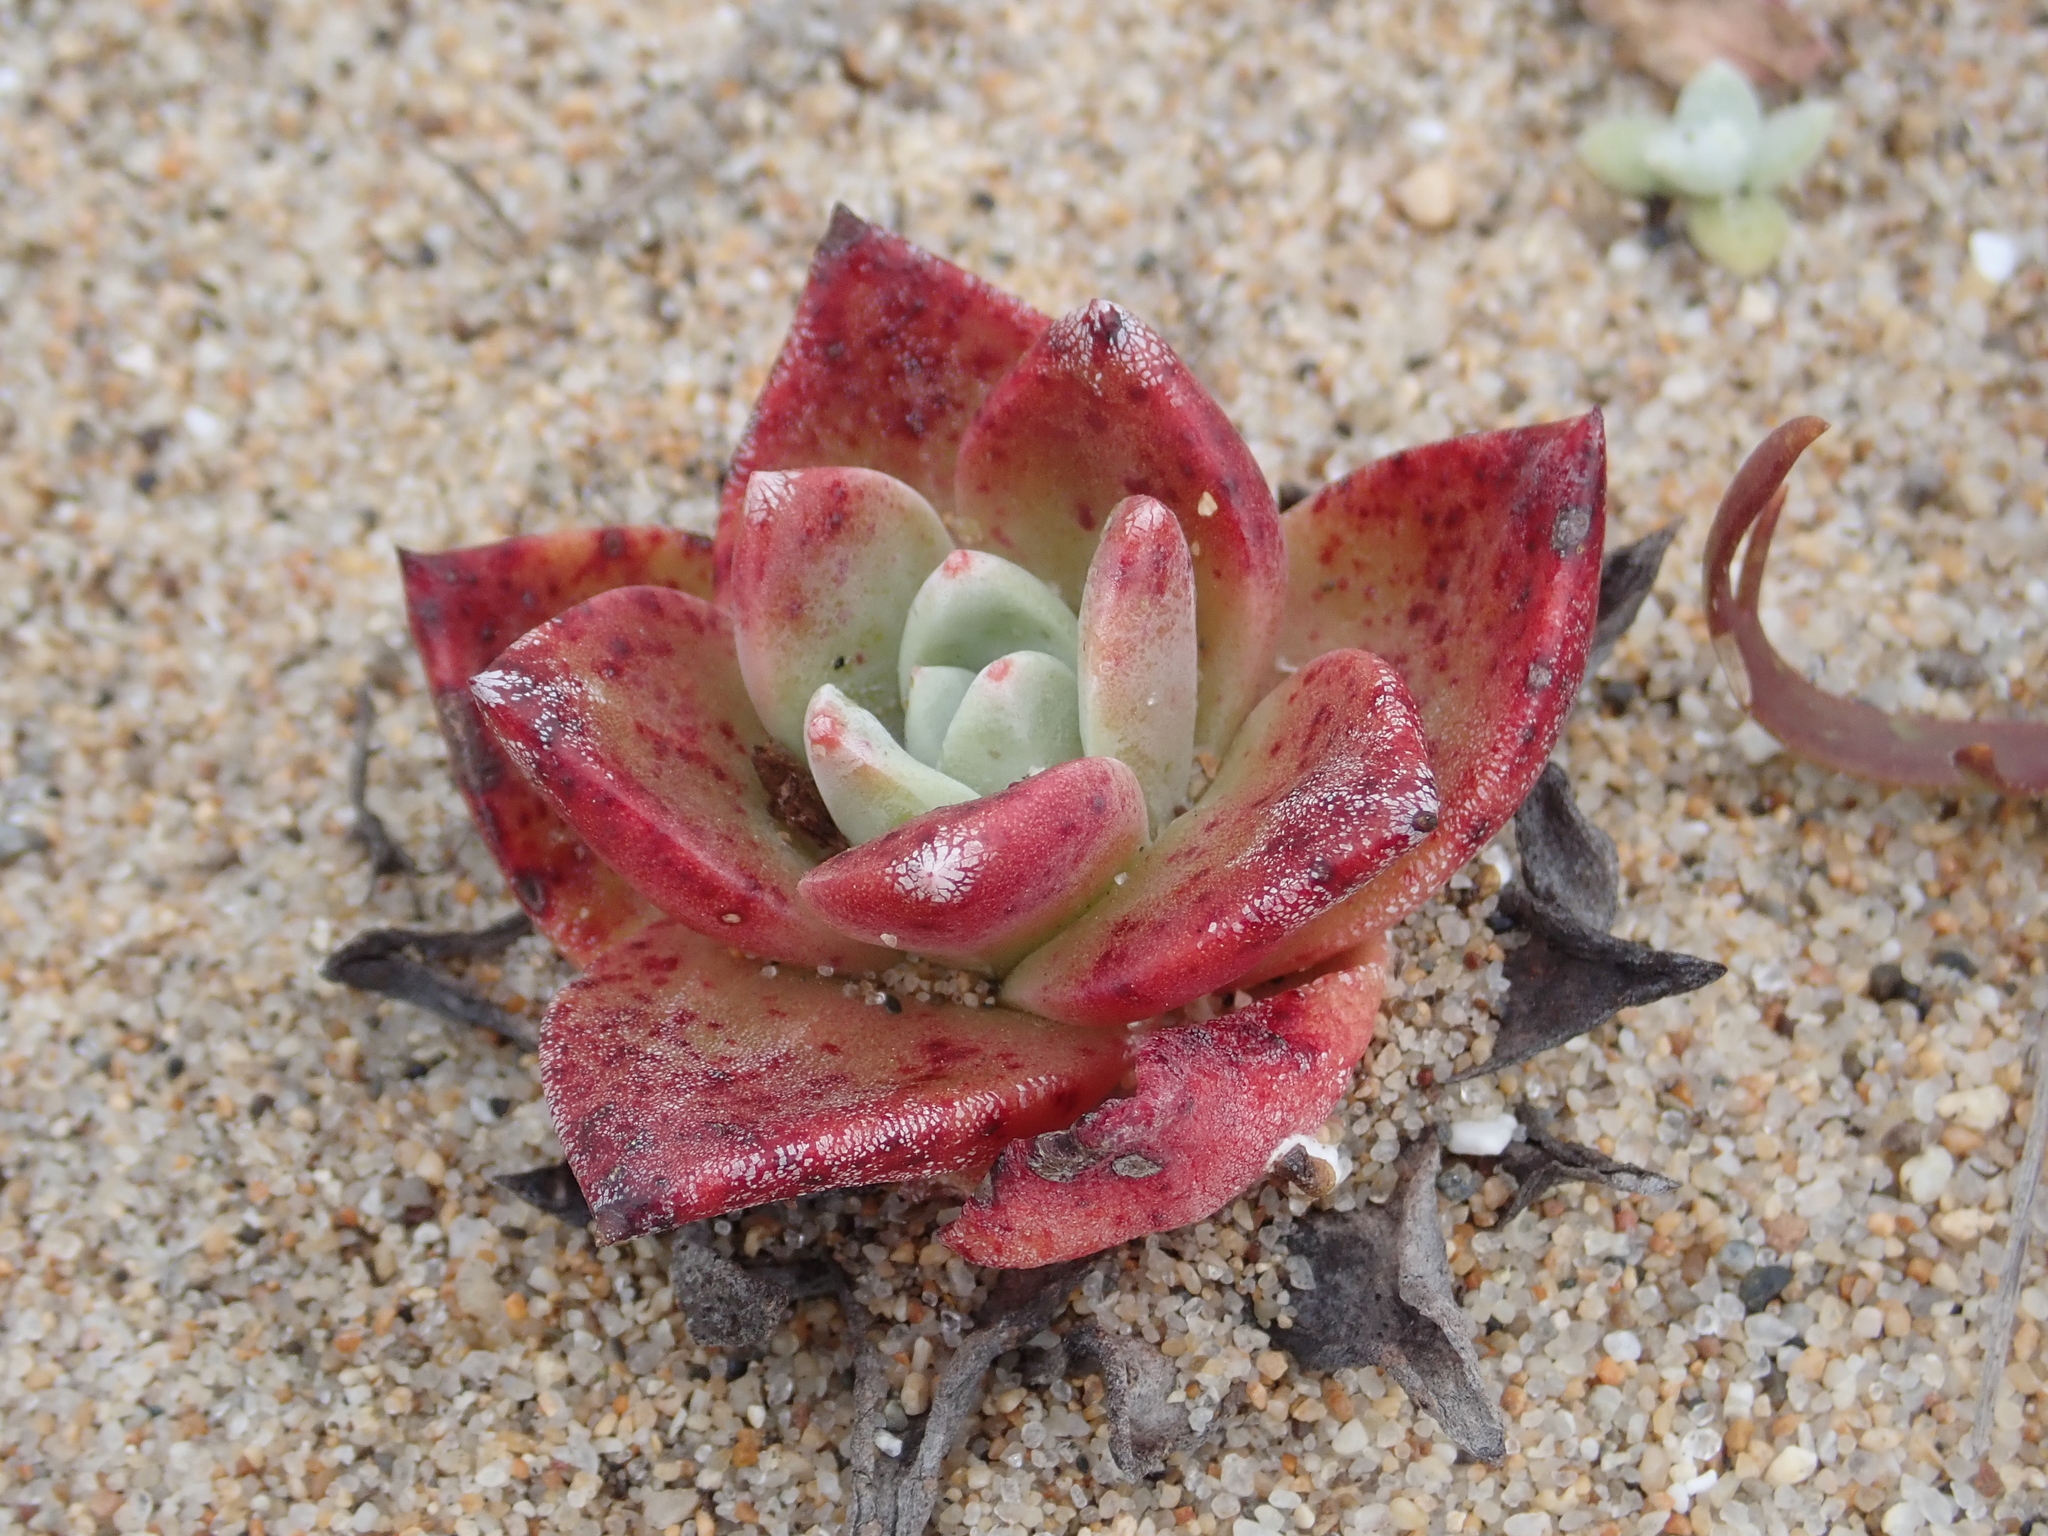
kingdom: Plantae
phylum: Tracheophyta
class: Magnoliopsida
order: Saxifragales
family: Crassulaceae
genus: Dudleya
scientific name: Dudleya caespitosa
